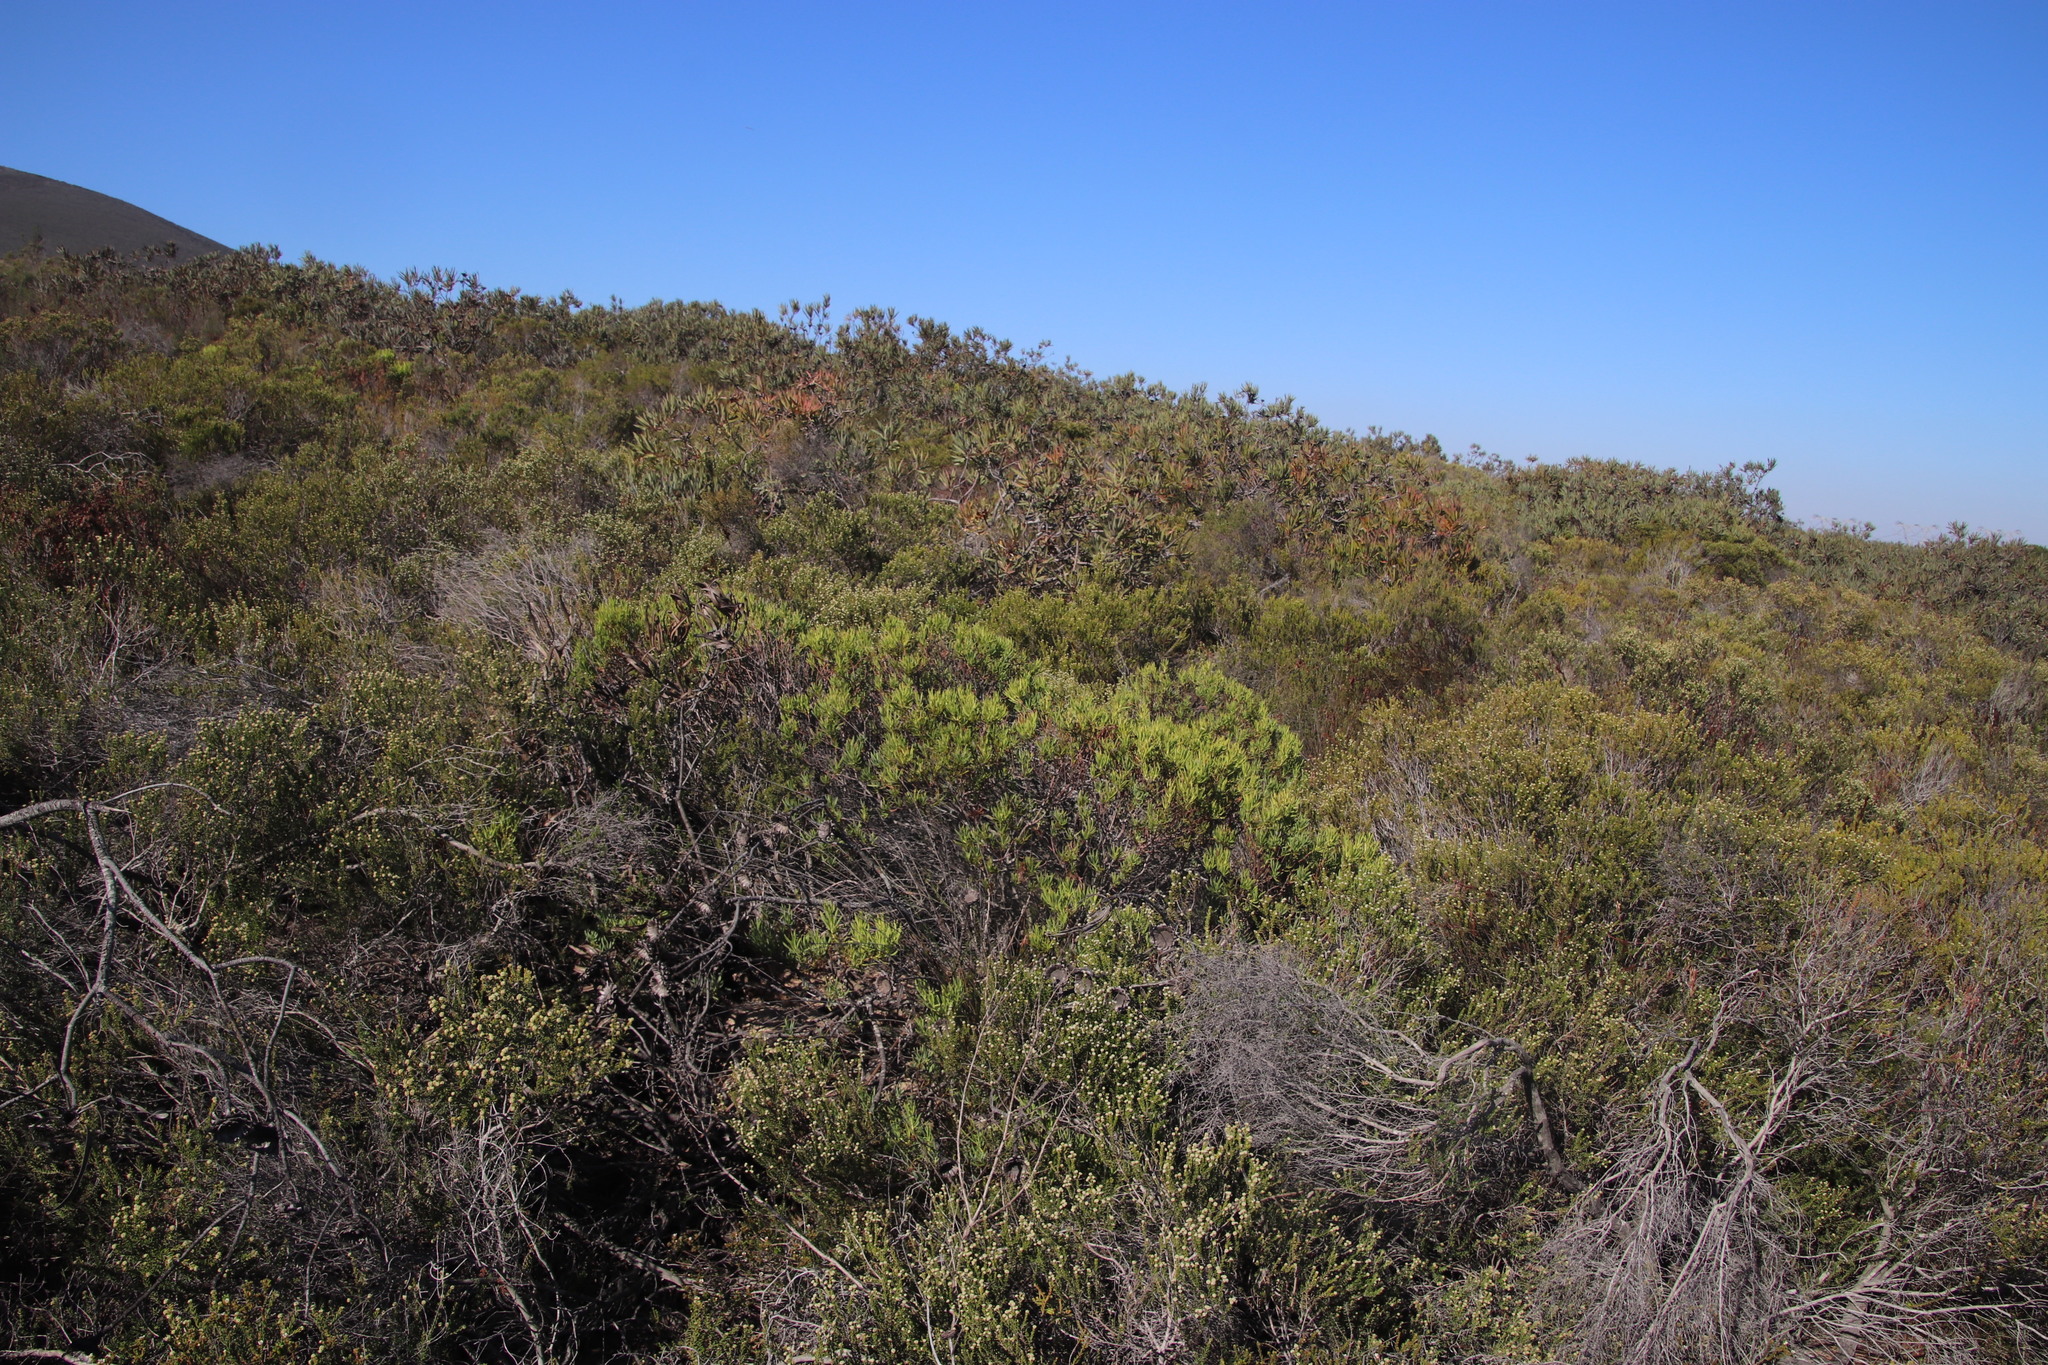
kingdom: Plantae
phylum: Tracheophyta
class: Magnoliopsida
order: Proteales
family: Proteaceae
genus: Leucadendron
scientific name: Leucadendron lanigerum
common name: Shale conebush
